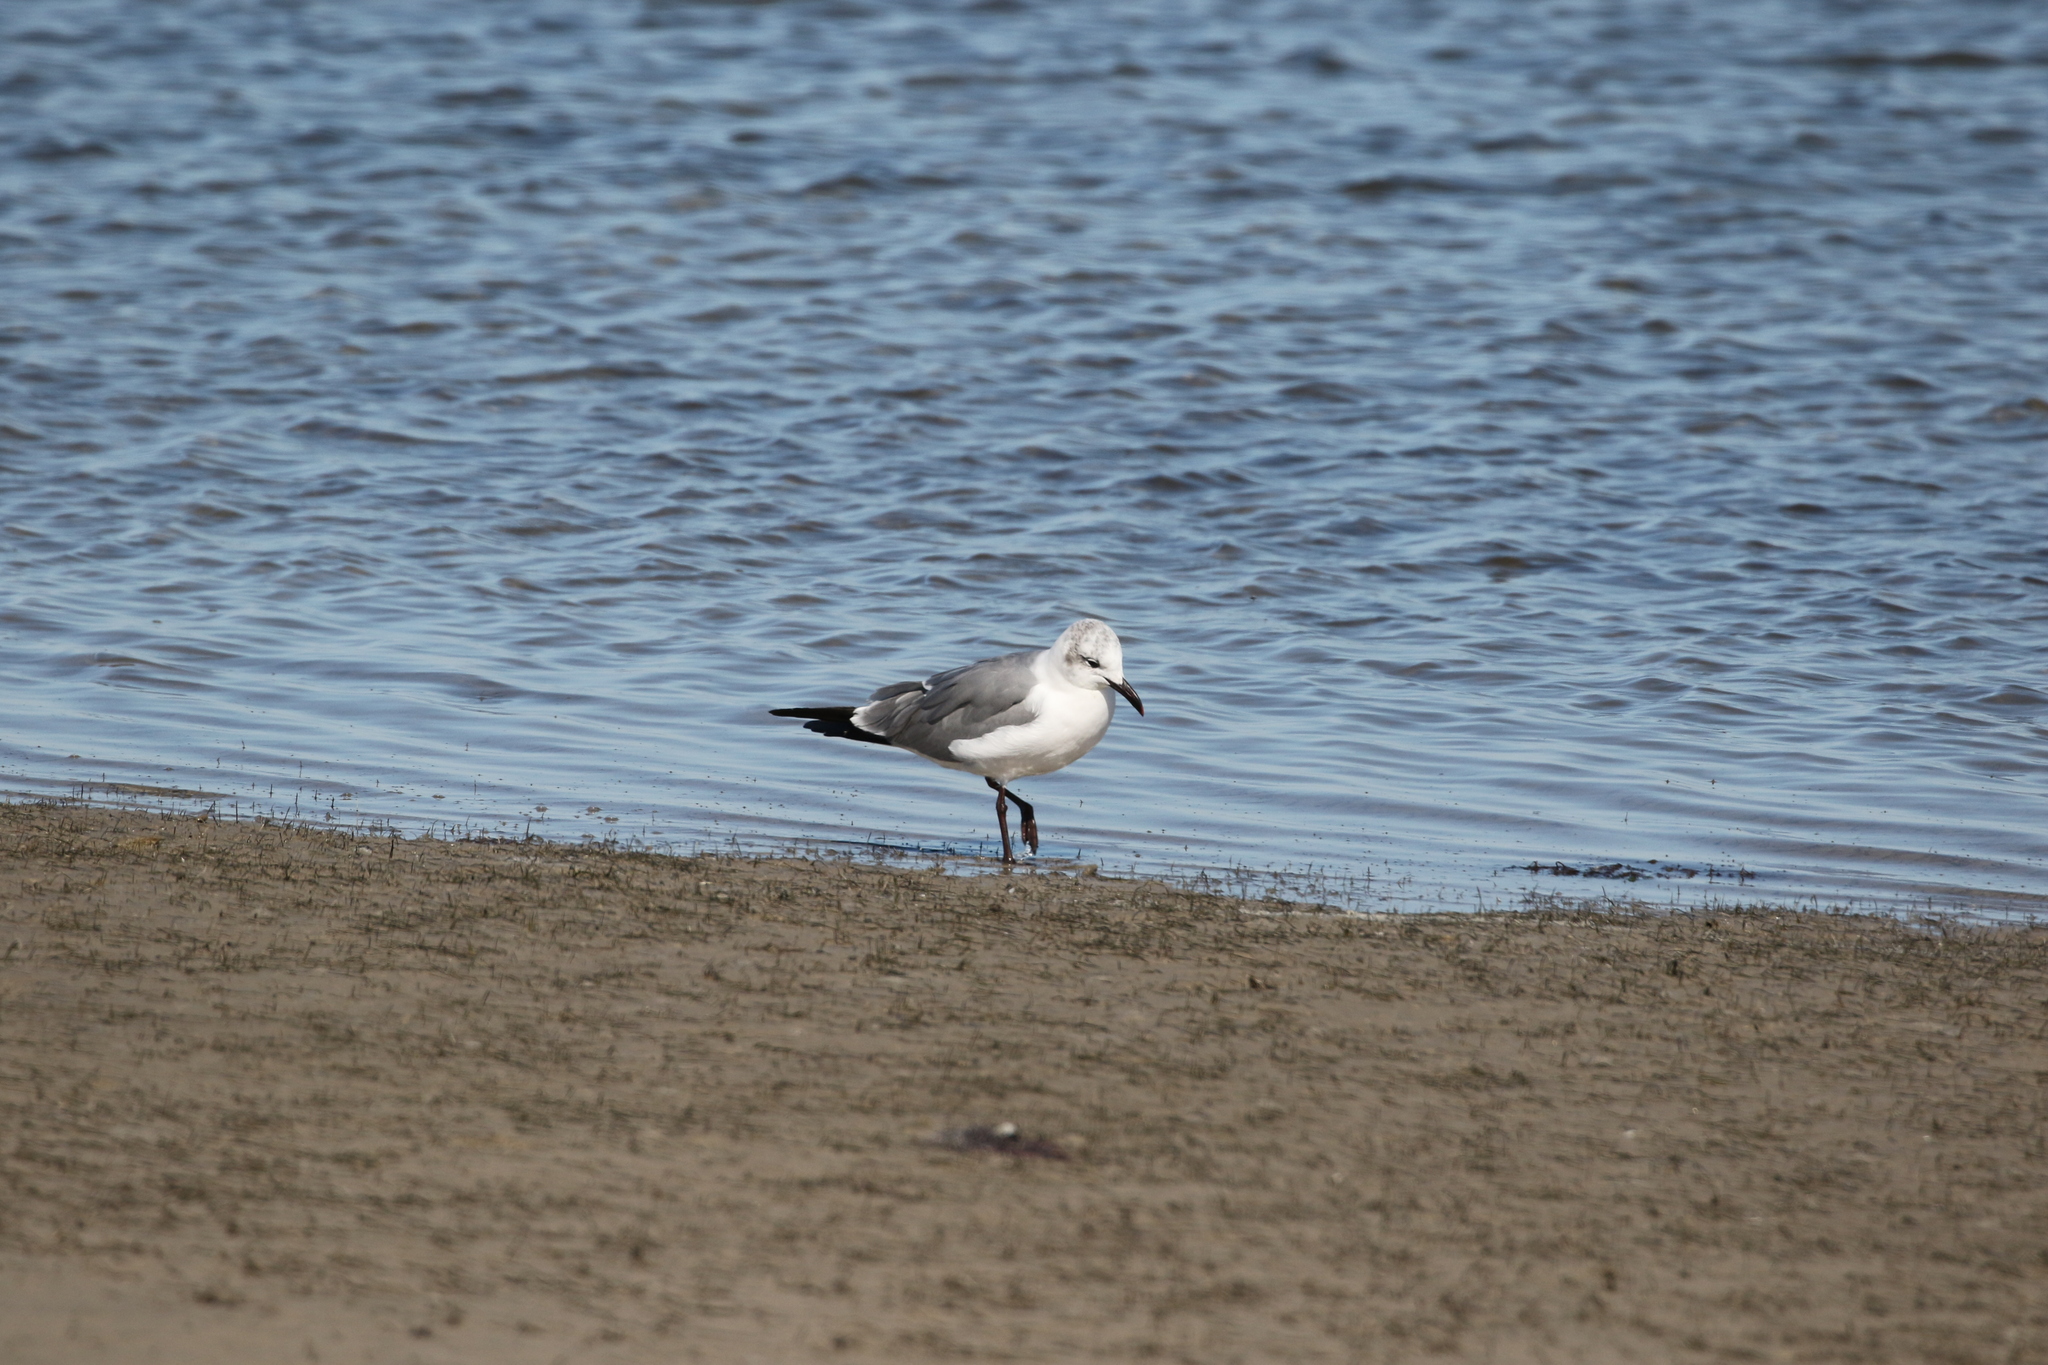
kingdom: Animalia
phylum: Chordata
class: Aves
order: Charadriiformes
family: Laridae
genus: Leucophaeus
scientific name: Leucophaeus atricilla
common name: Laughing gull
